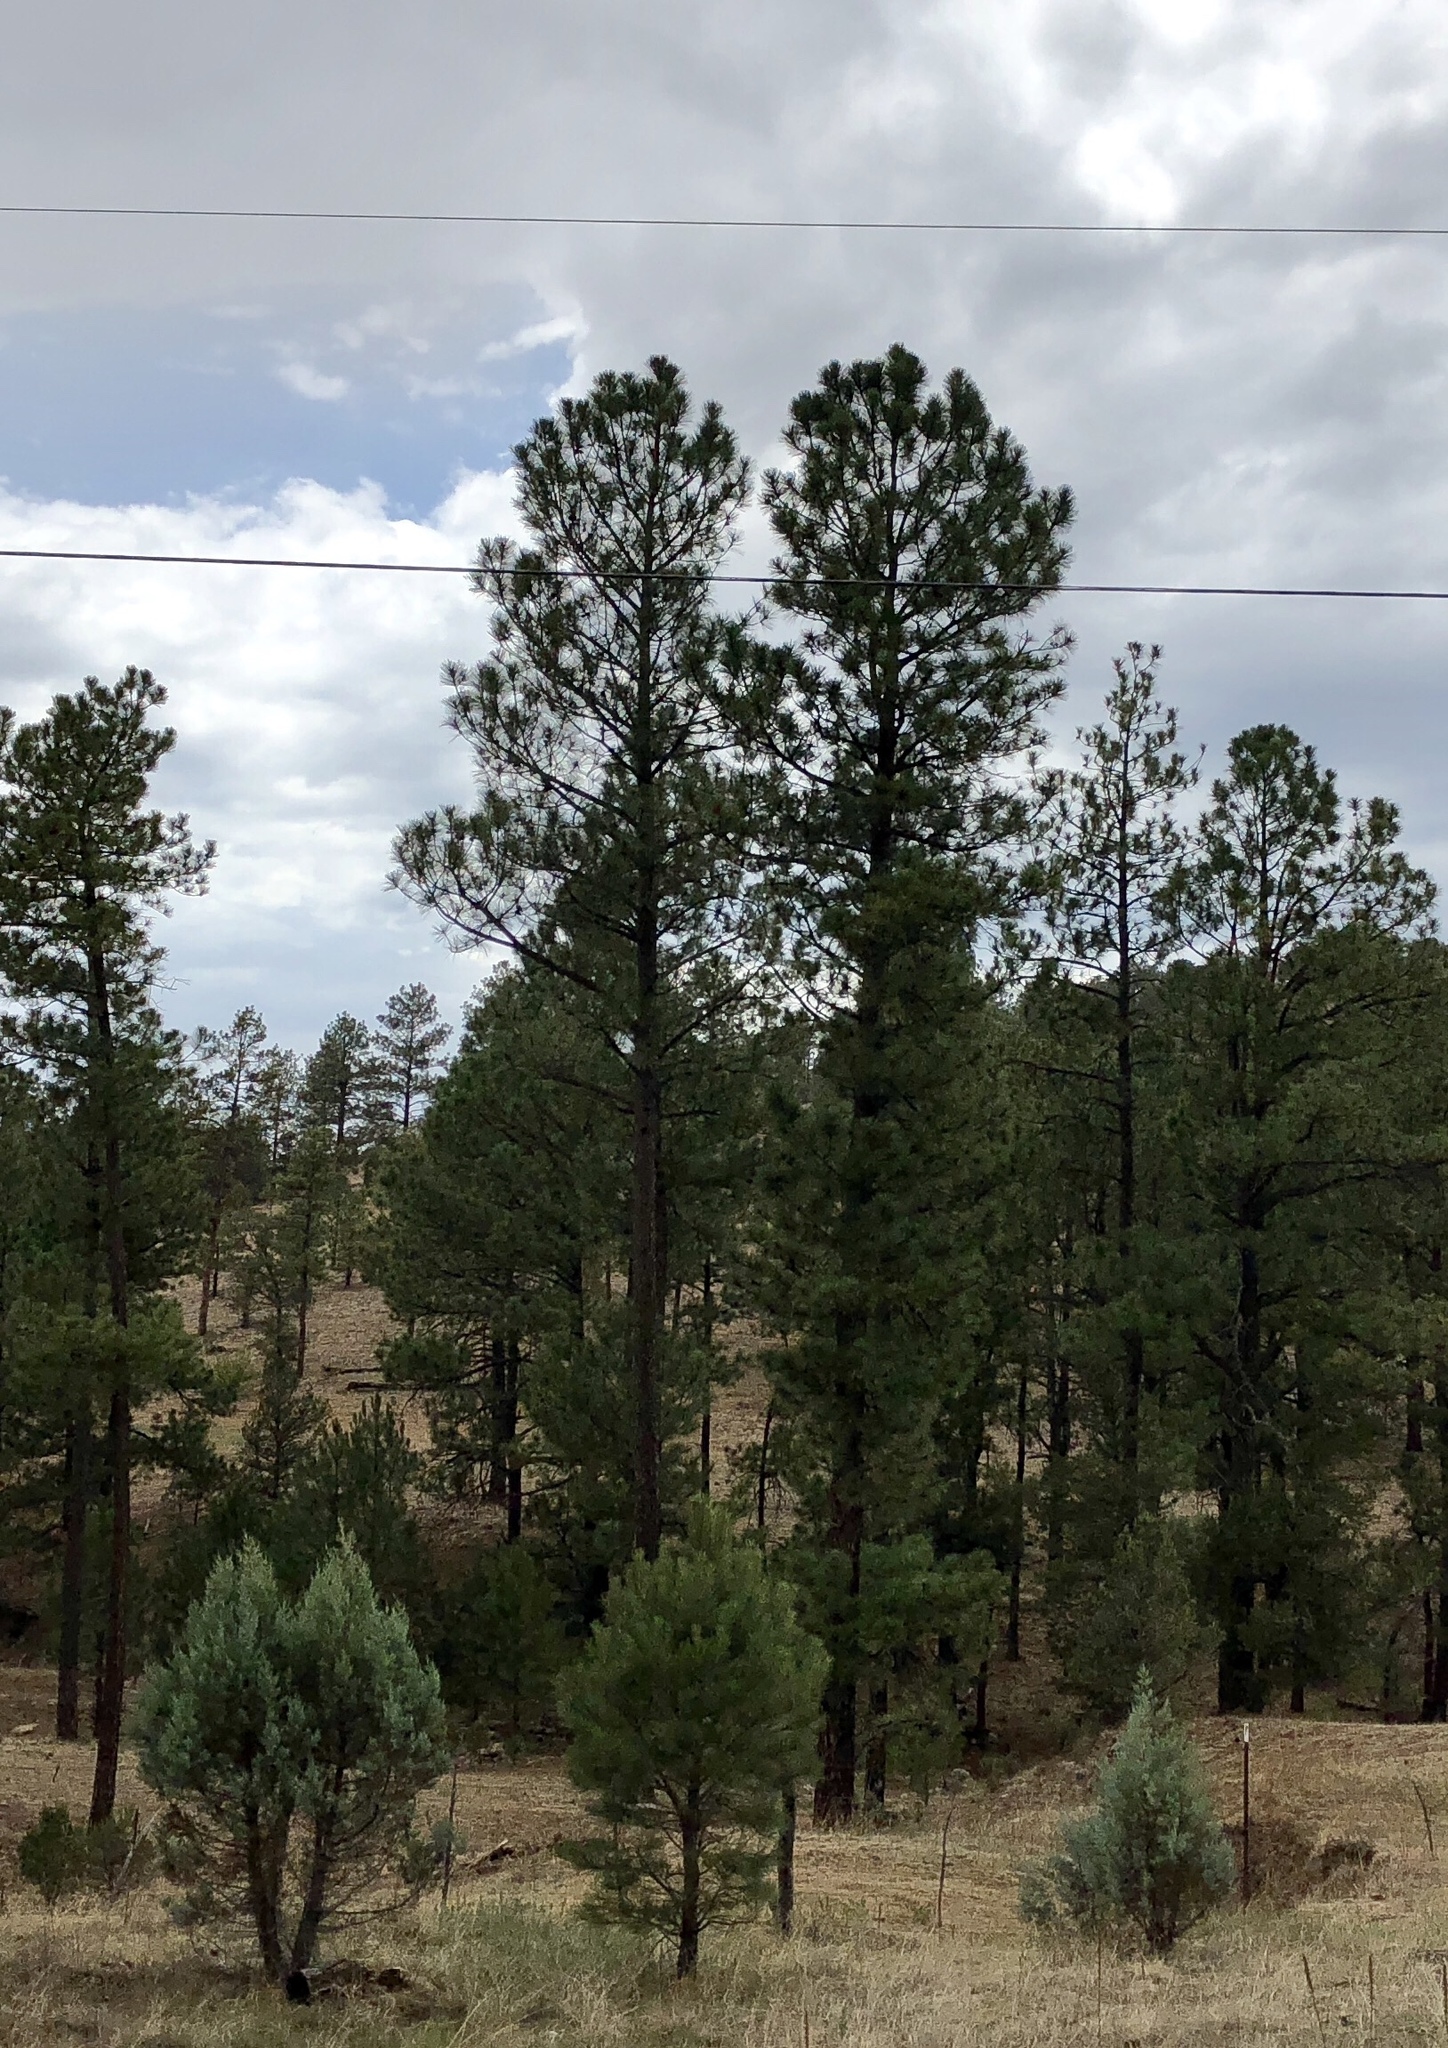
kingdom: Plantae
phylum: Tracheophyta
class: Pinopsida
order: Pinales
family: Pinaceae
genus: Pinus
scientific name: Pinus ponderosa
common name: Western yellow-pine
